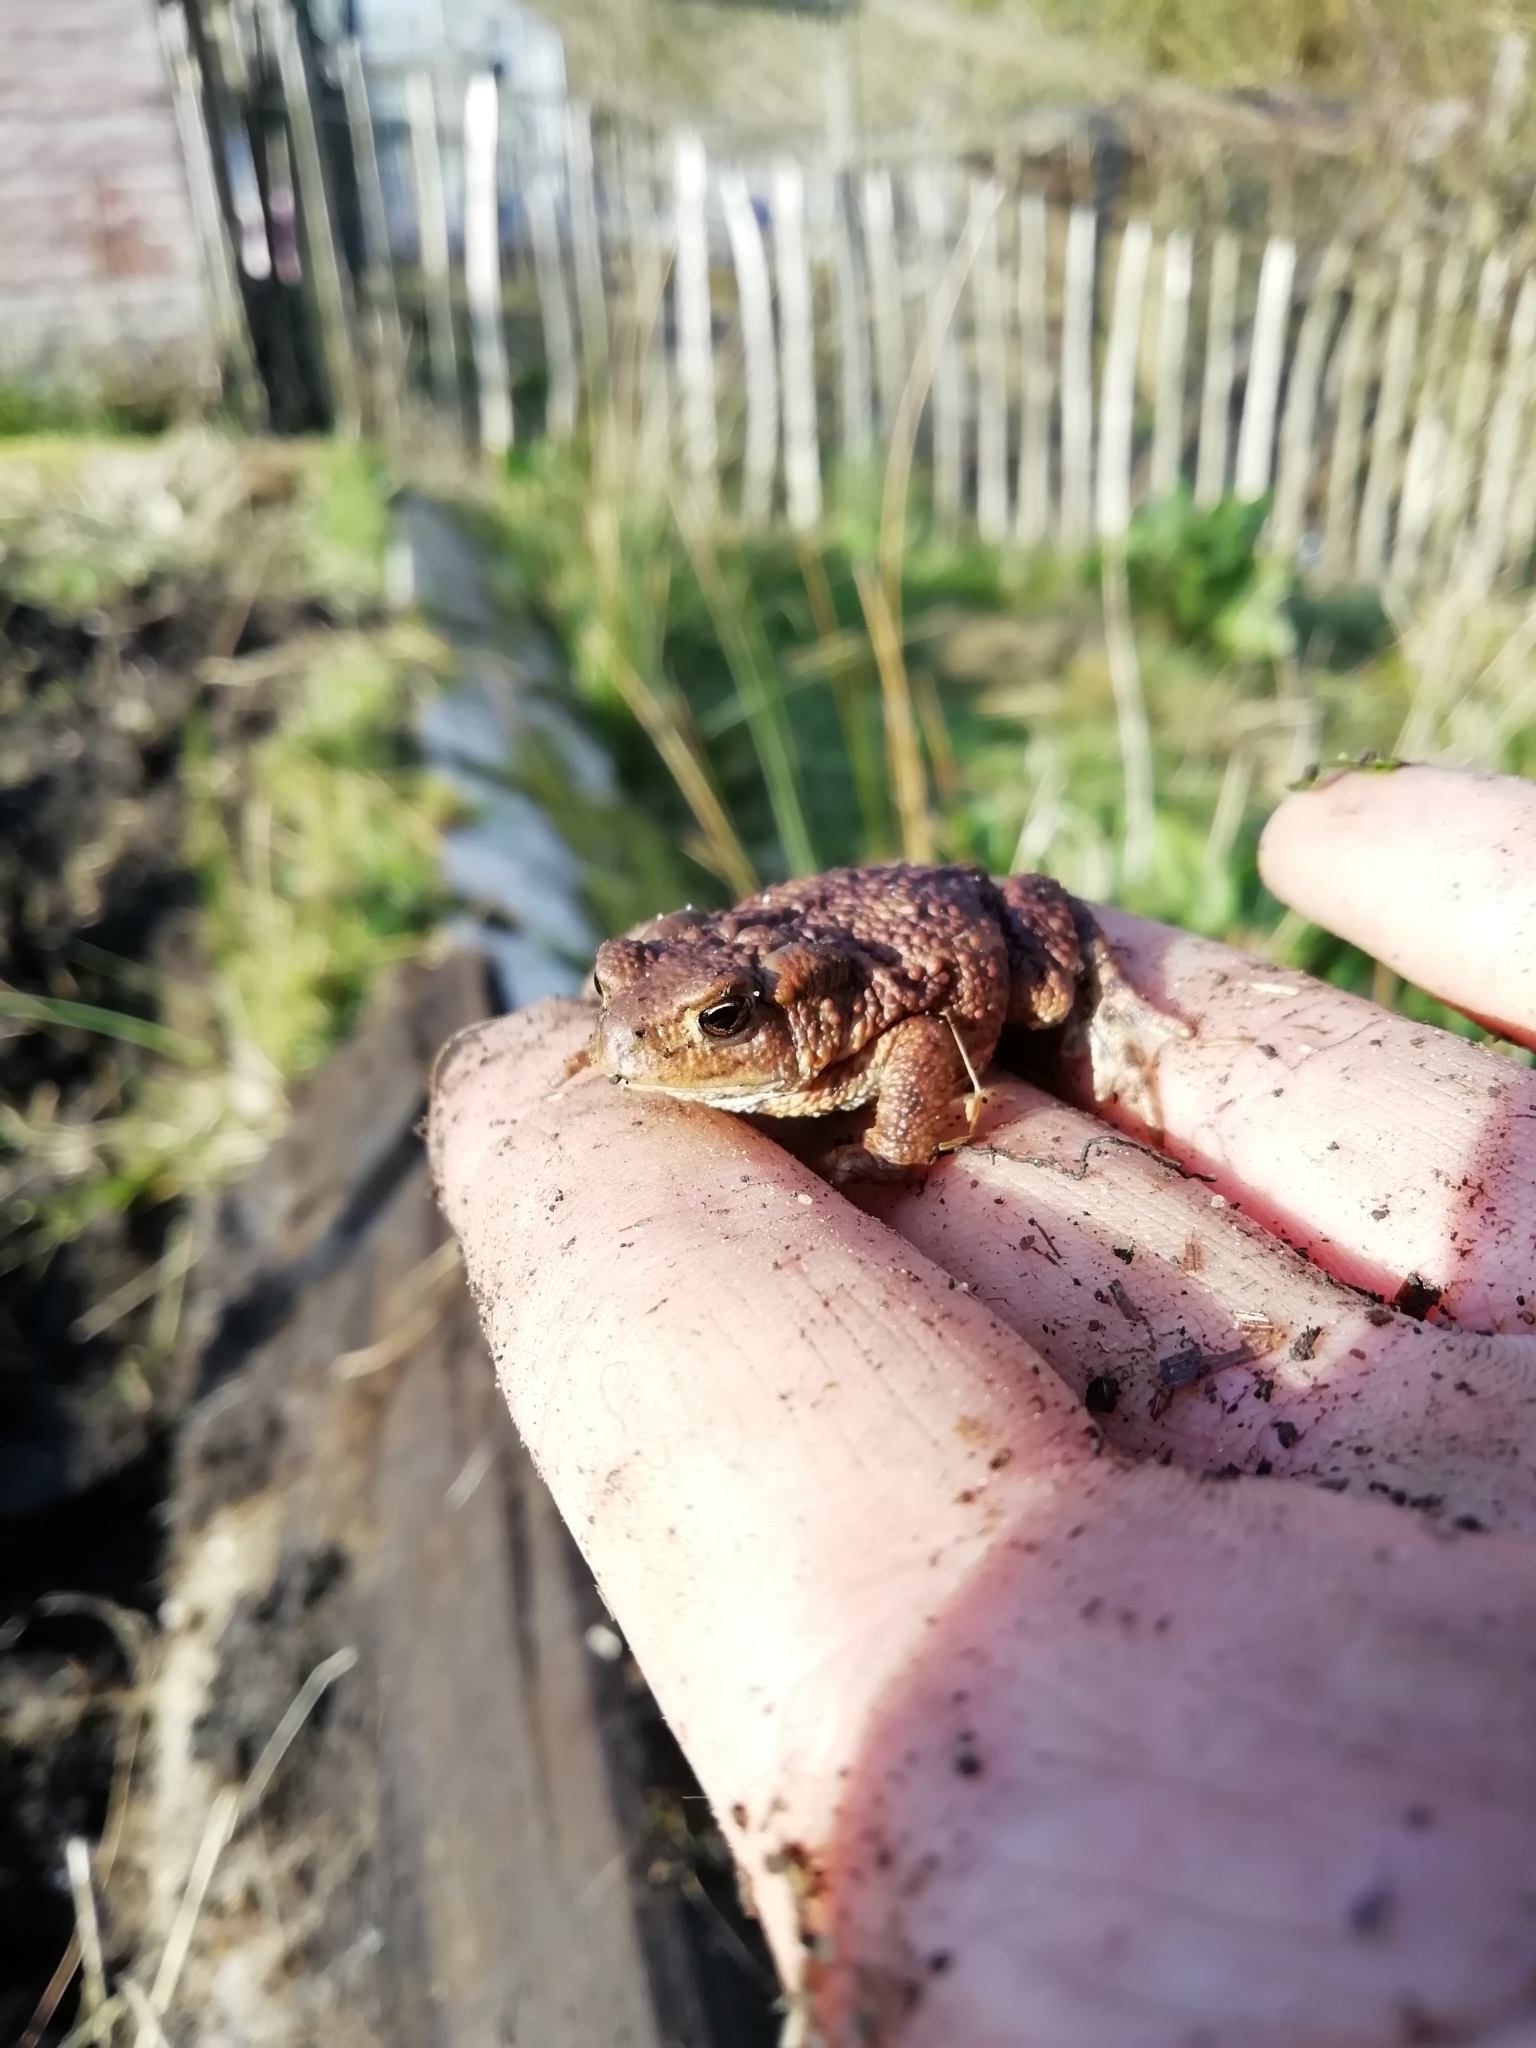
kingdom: Animalia
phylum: Chordata
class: Amphibia
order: Anura
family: Bufonidae
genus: Bufo
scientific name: Bufo bufo
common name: Common toad
